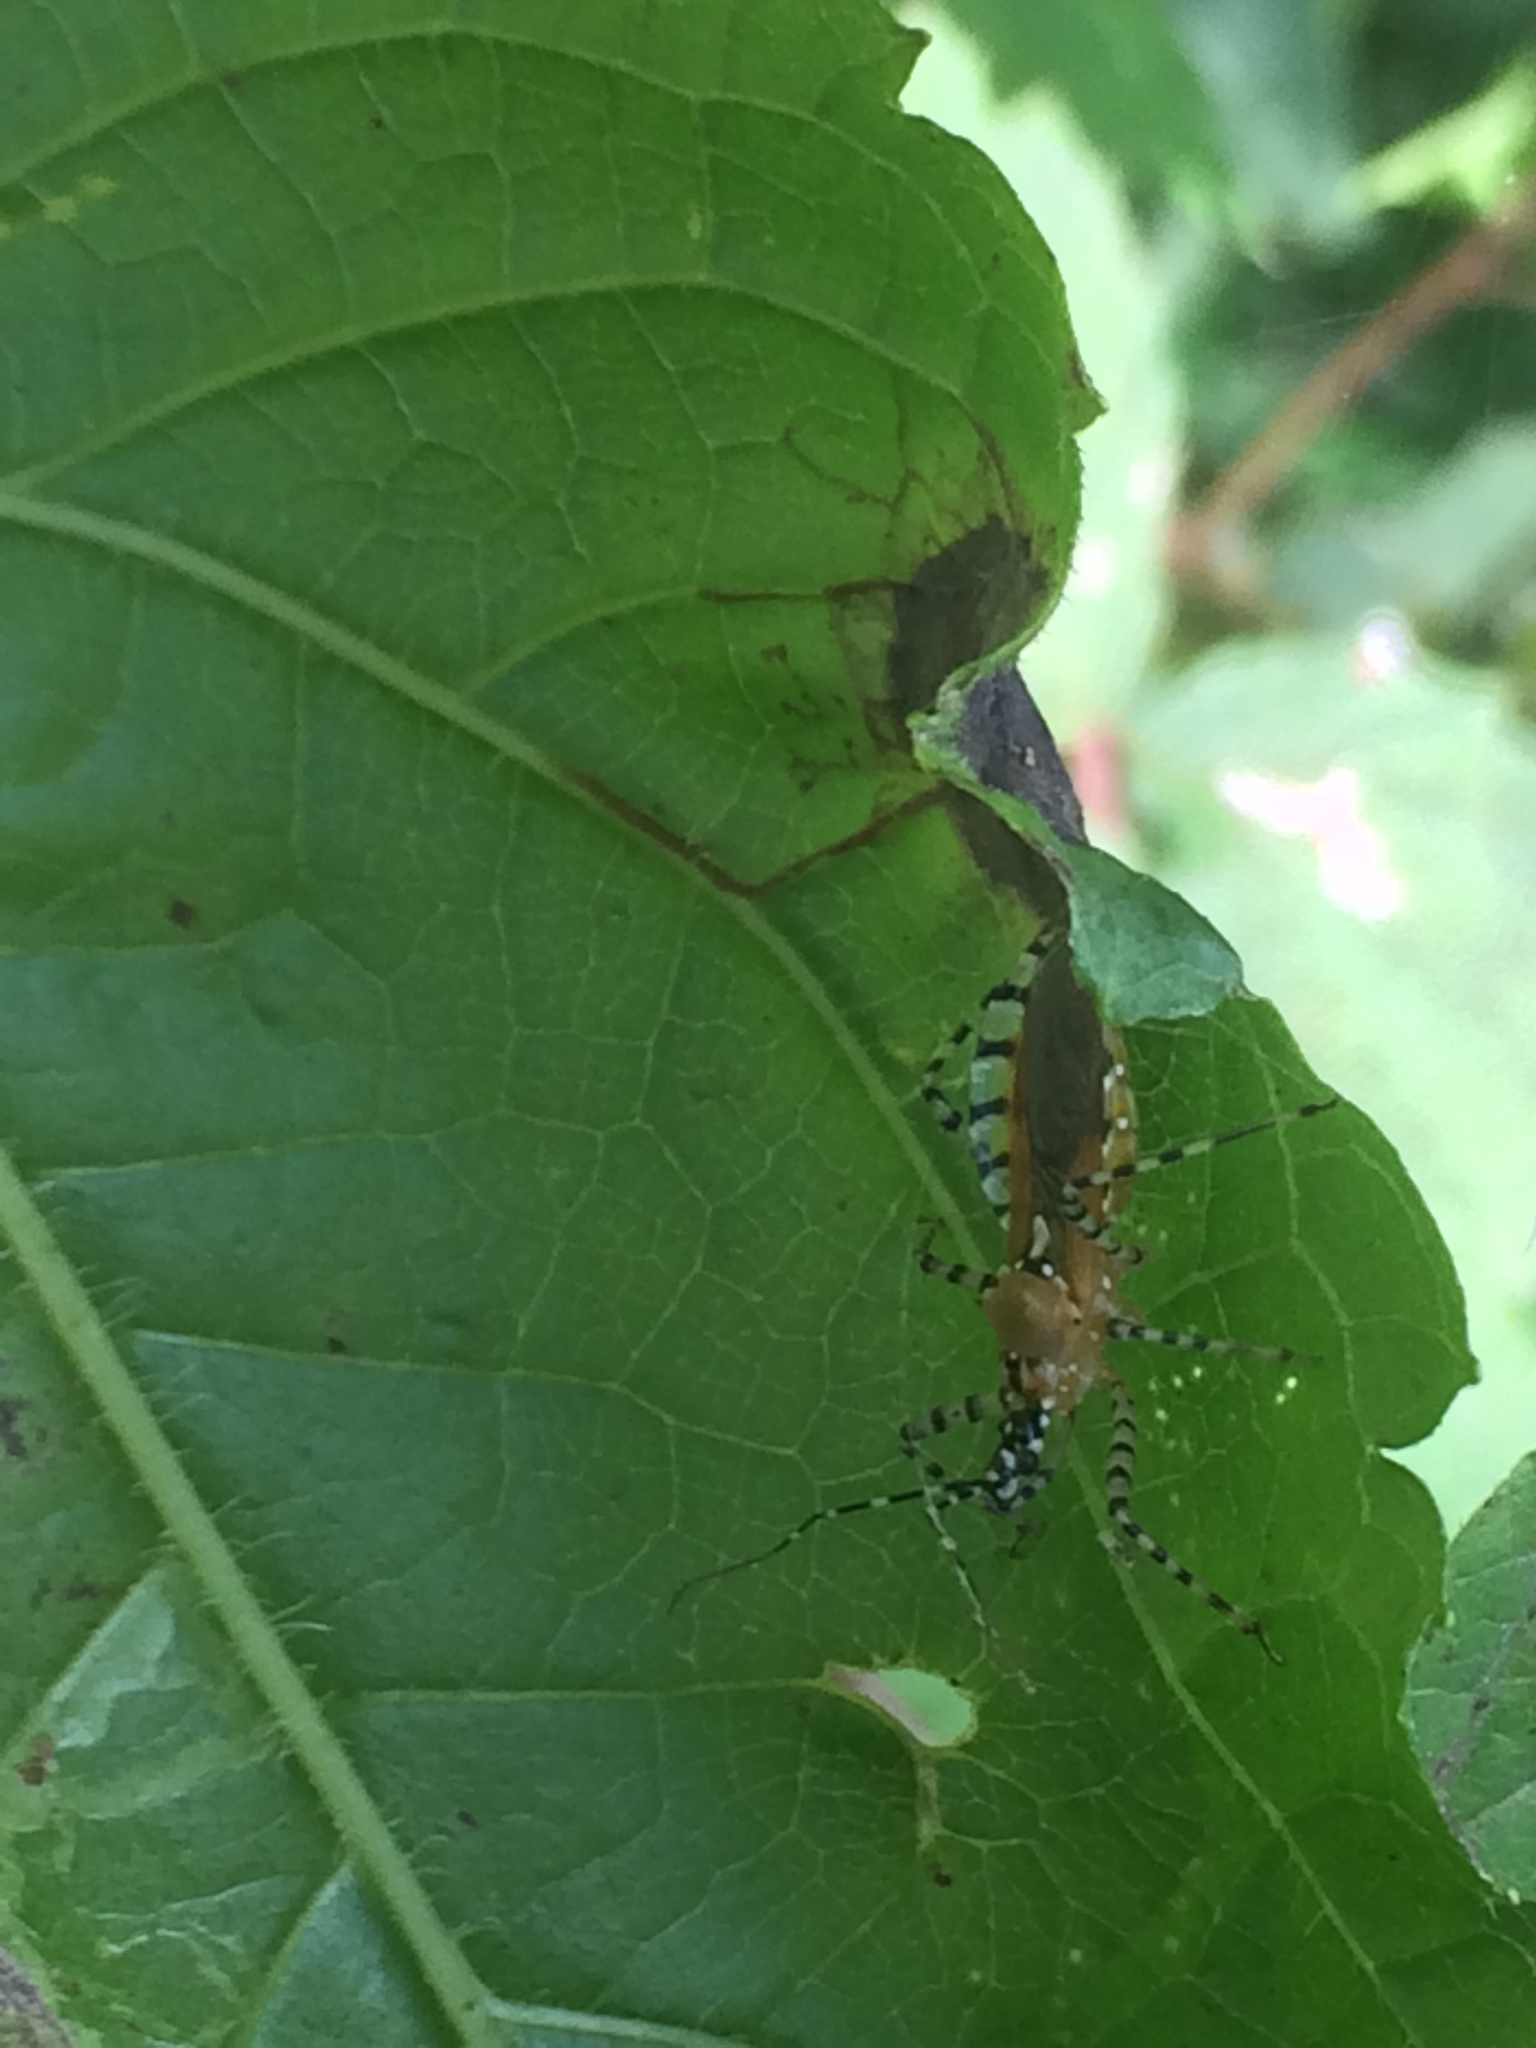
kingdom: Animalia
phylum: Arthropoda
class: Insecta
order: Hemiptera
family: Reduviidae
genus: Pselliopus
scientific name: Pselliopus cinctus
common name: Ringed assassin bug
